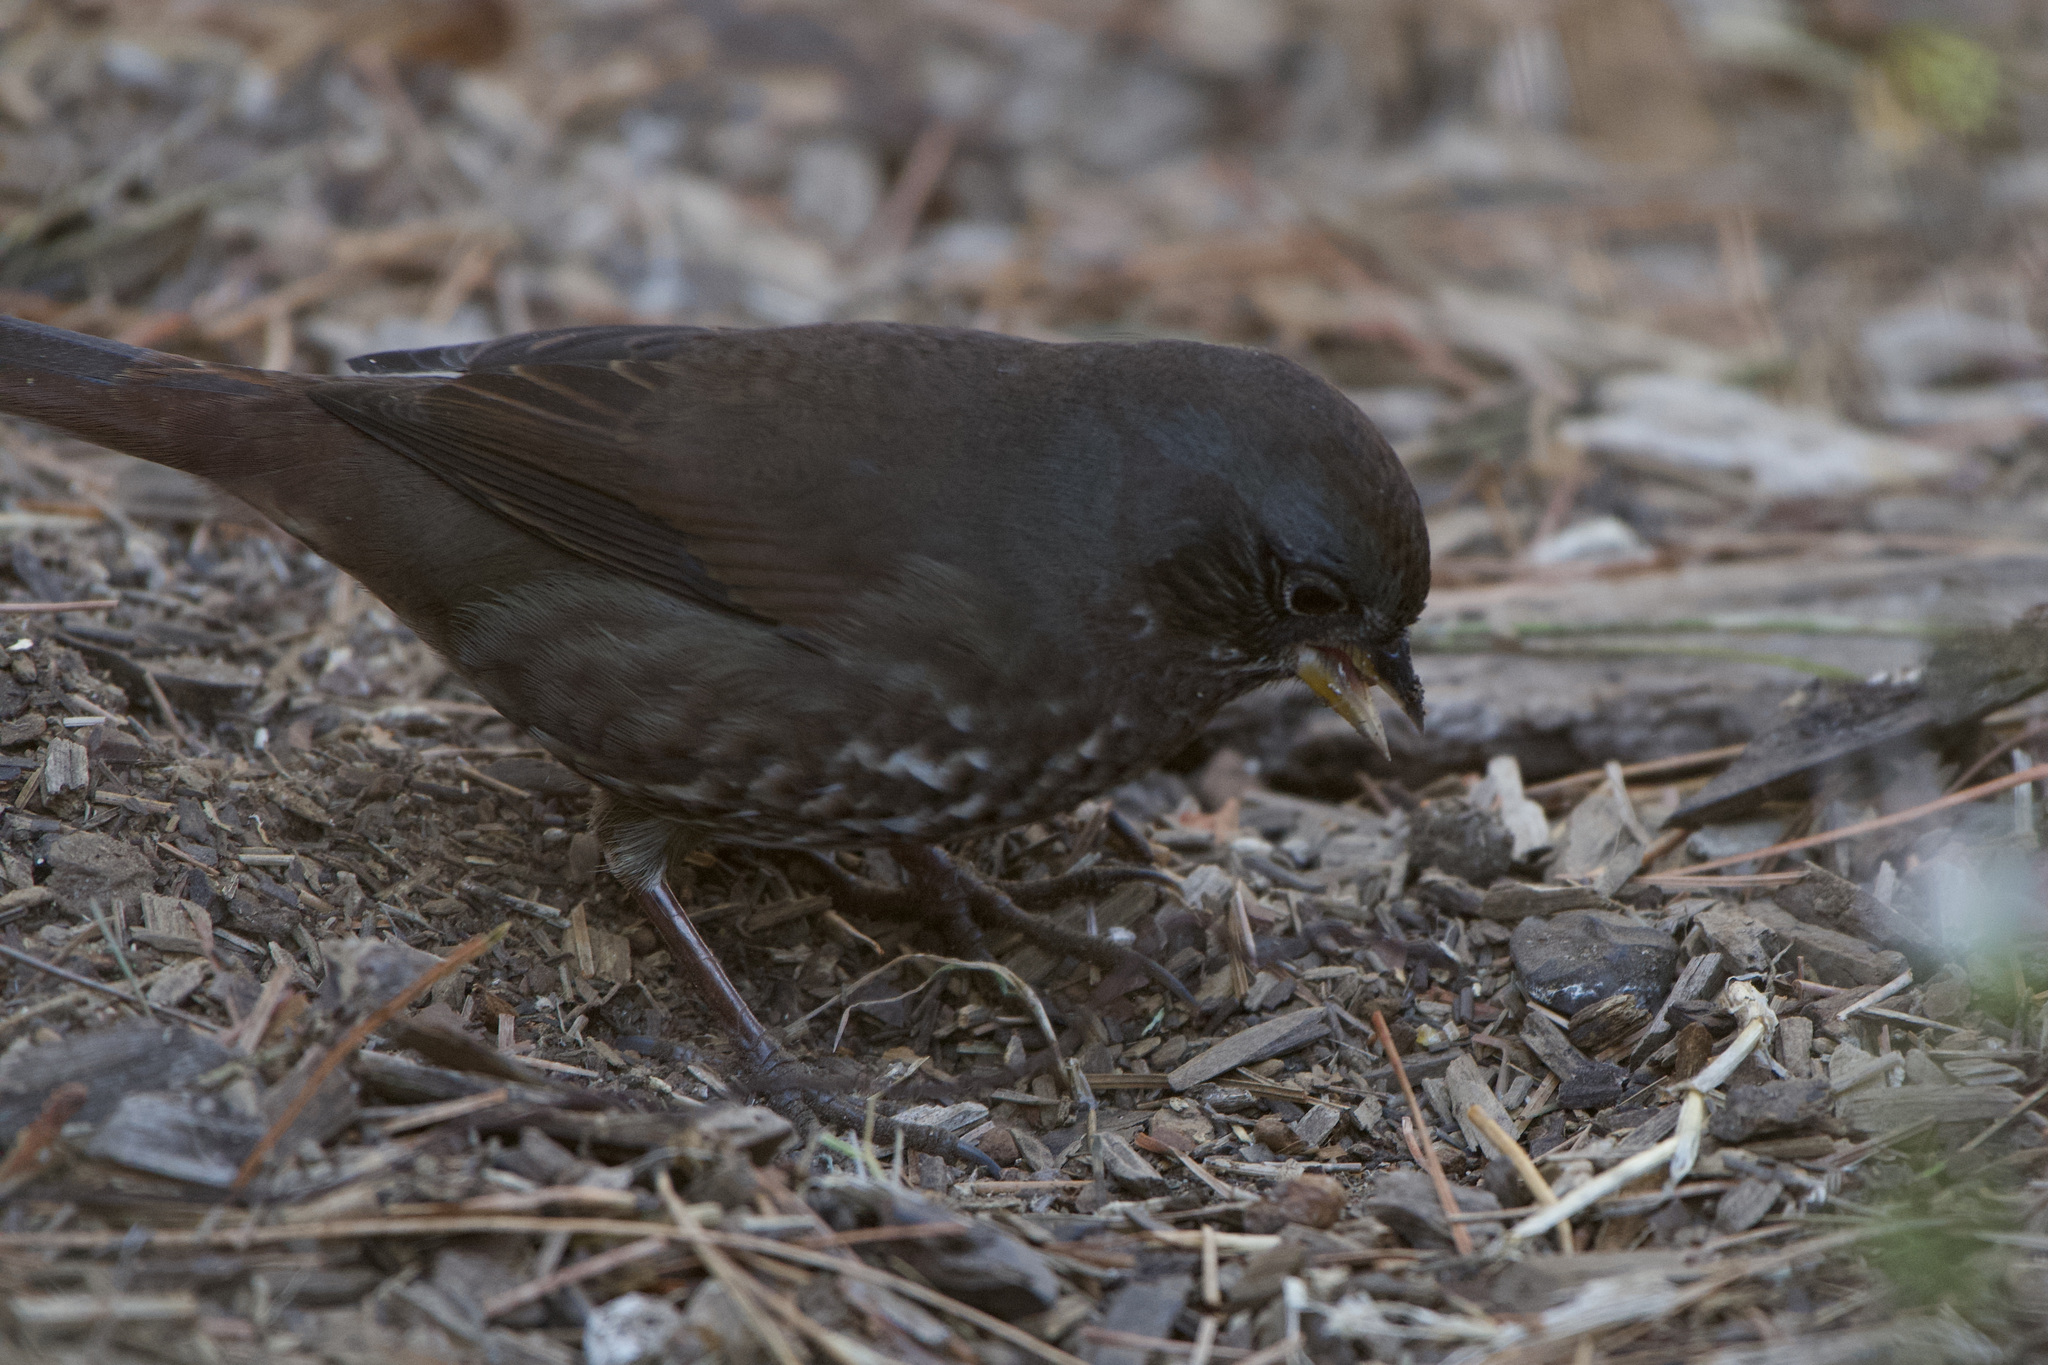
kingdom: Animalia
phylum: Chordata
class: Aves
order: Passeriformes
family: Passerellidae
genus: Passerella
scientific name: Passerella iliaca
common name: Fox sparrow
